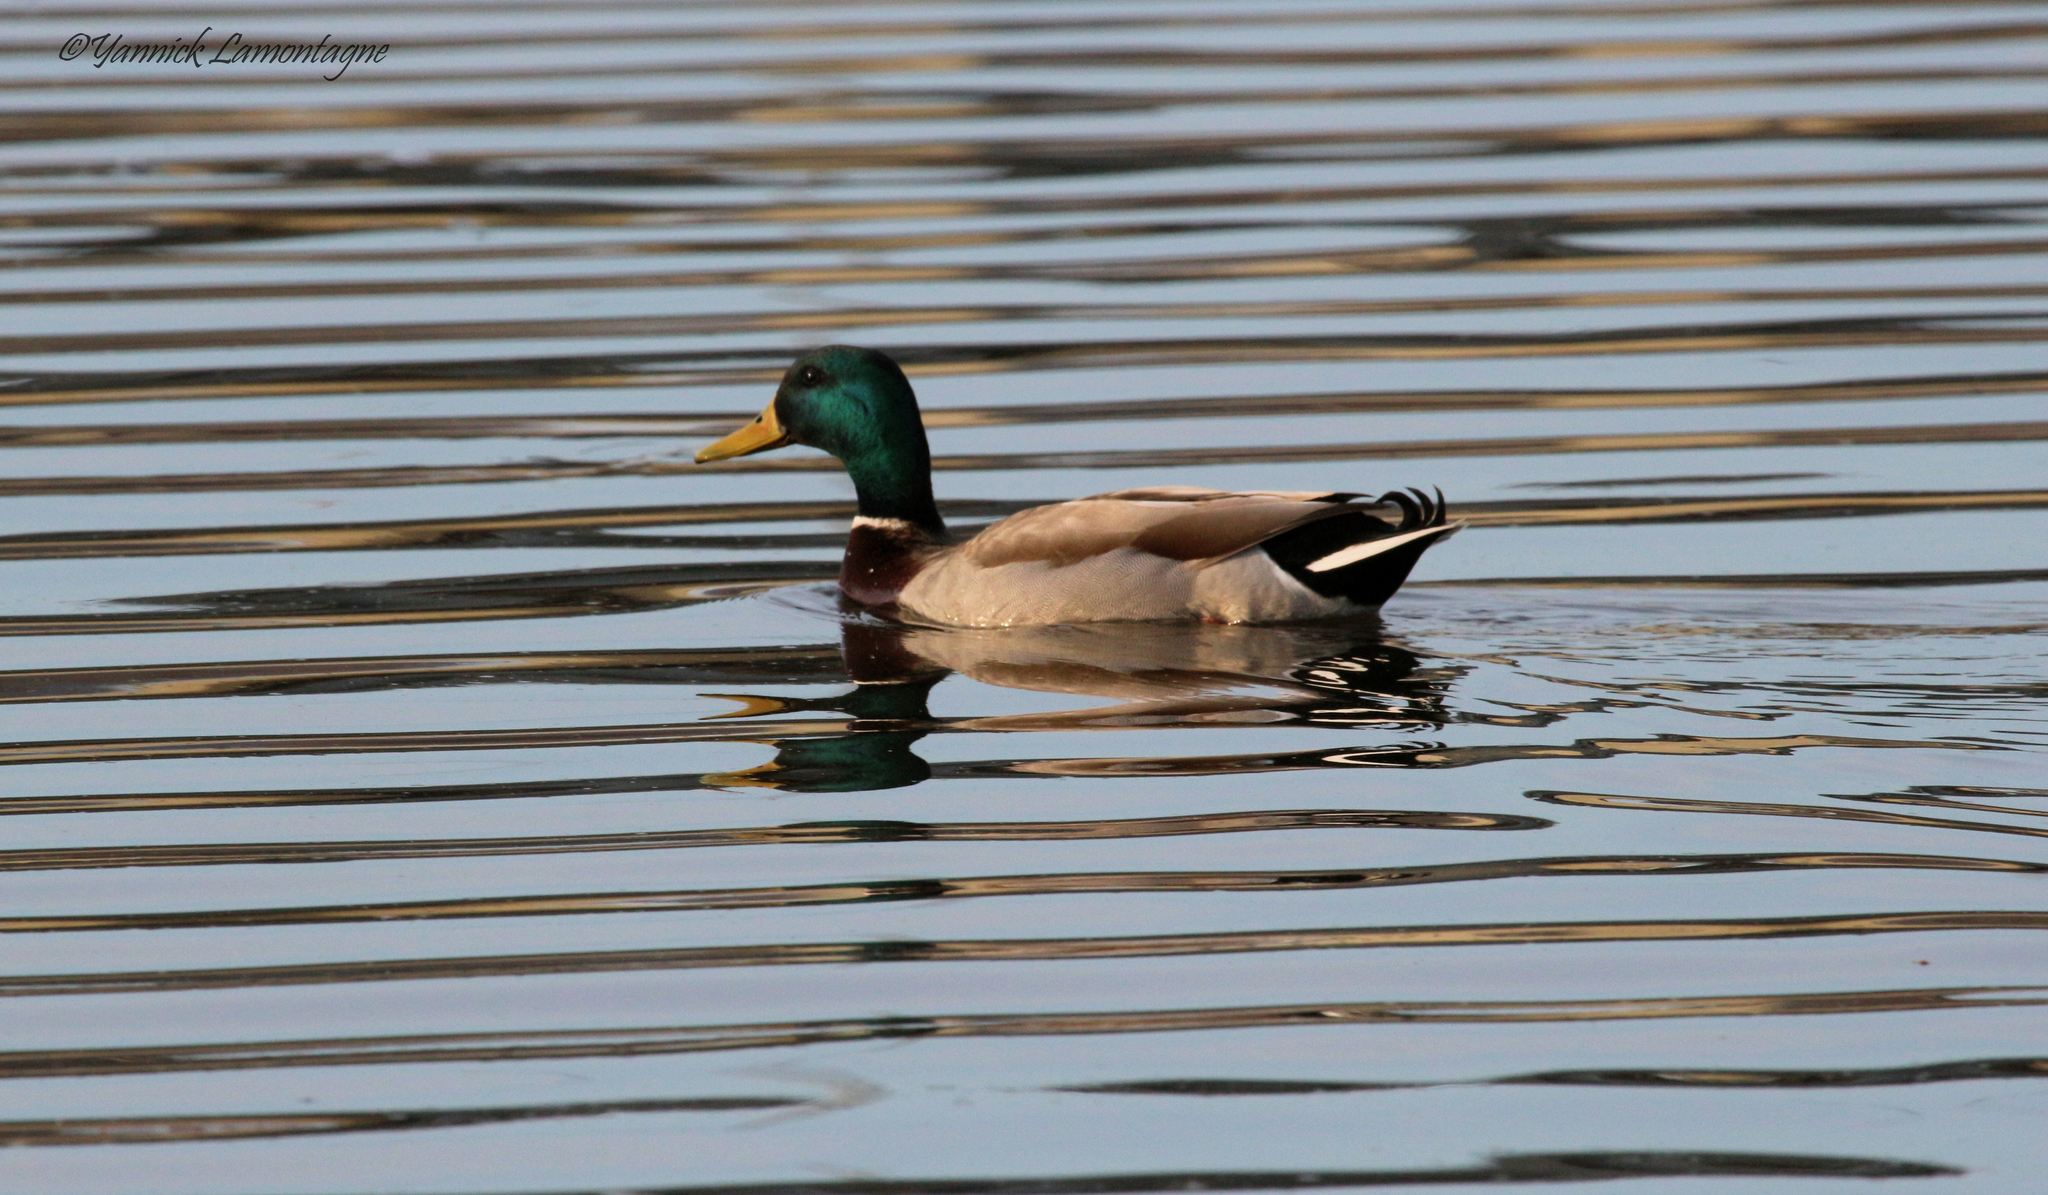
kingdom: Animalia
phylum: Chordata
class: Aves
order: Anseriformes
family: Anatidae
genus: Anas
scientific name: Anas platyrhynchos
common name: Mallard
